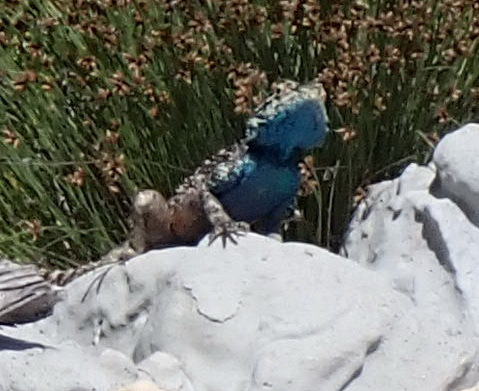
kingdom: Animalia
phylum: Chordata
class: Squamata
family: Agamidae
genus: Agama
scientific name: Agama atra
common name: Southern african rock agama
